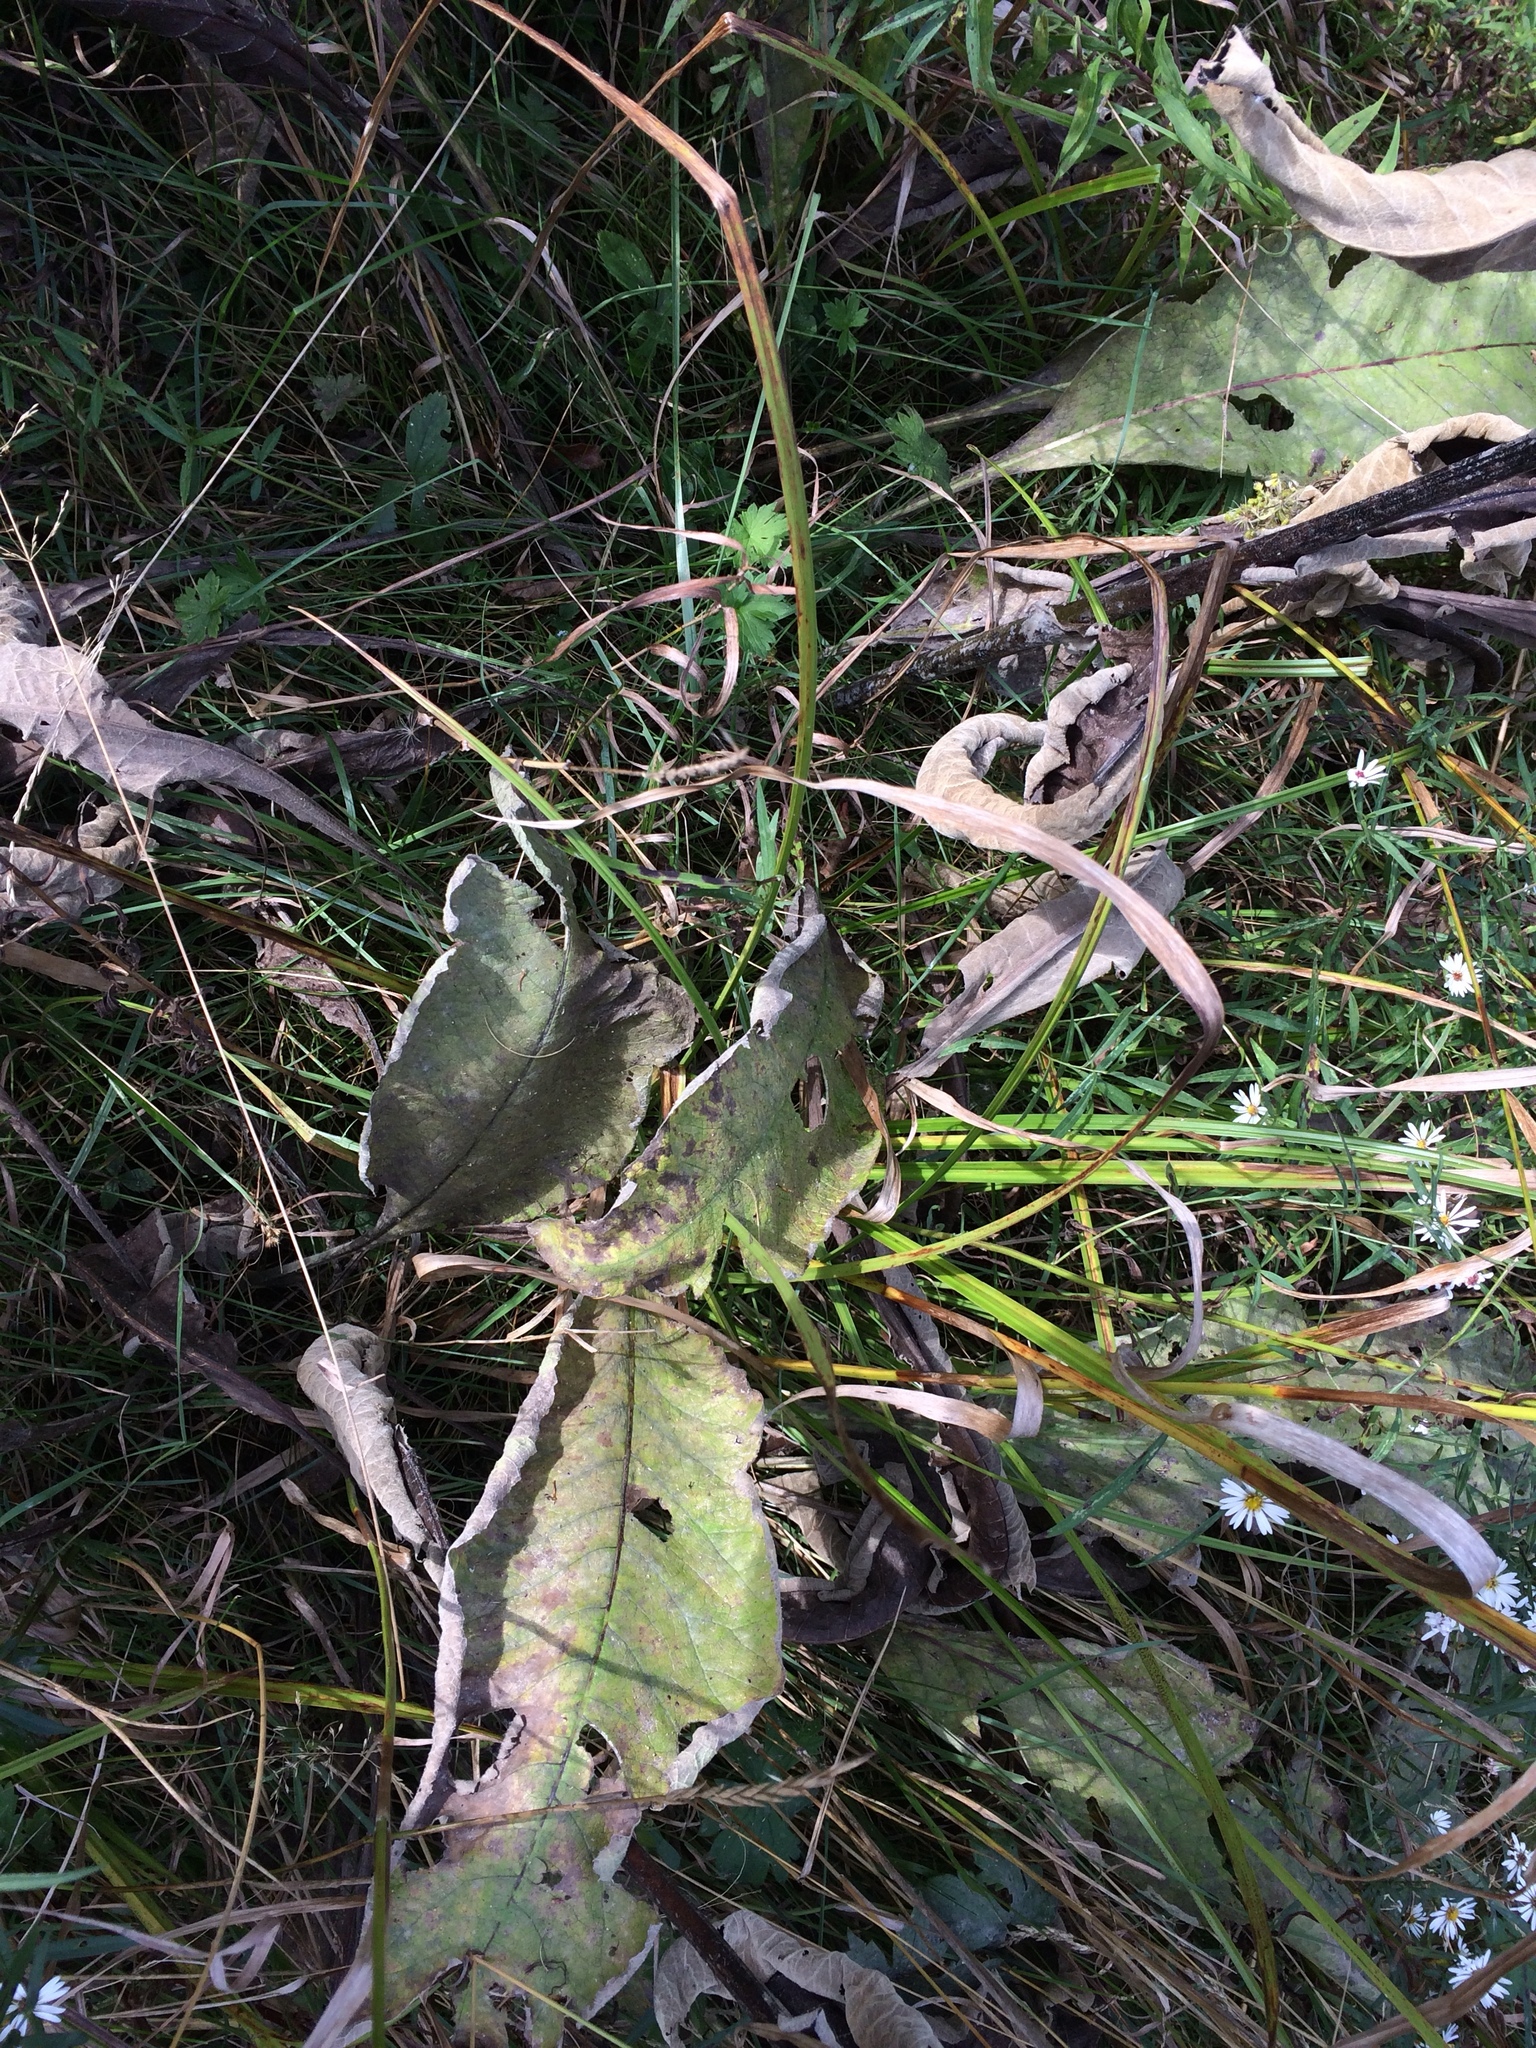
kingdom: Plantae
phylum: Tracheophyta
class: Magnoliopsida
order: Asterales
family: Asteraceae
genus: Inula
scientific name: Inula helenium
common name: Elecampane
